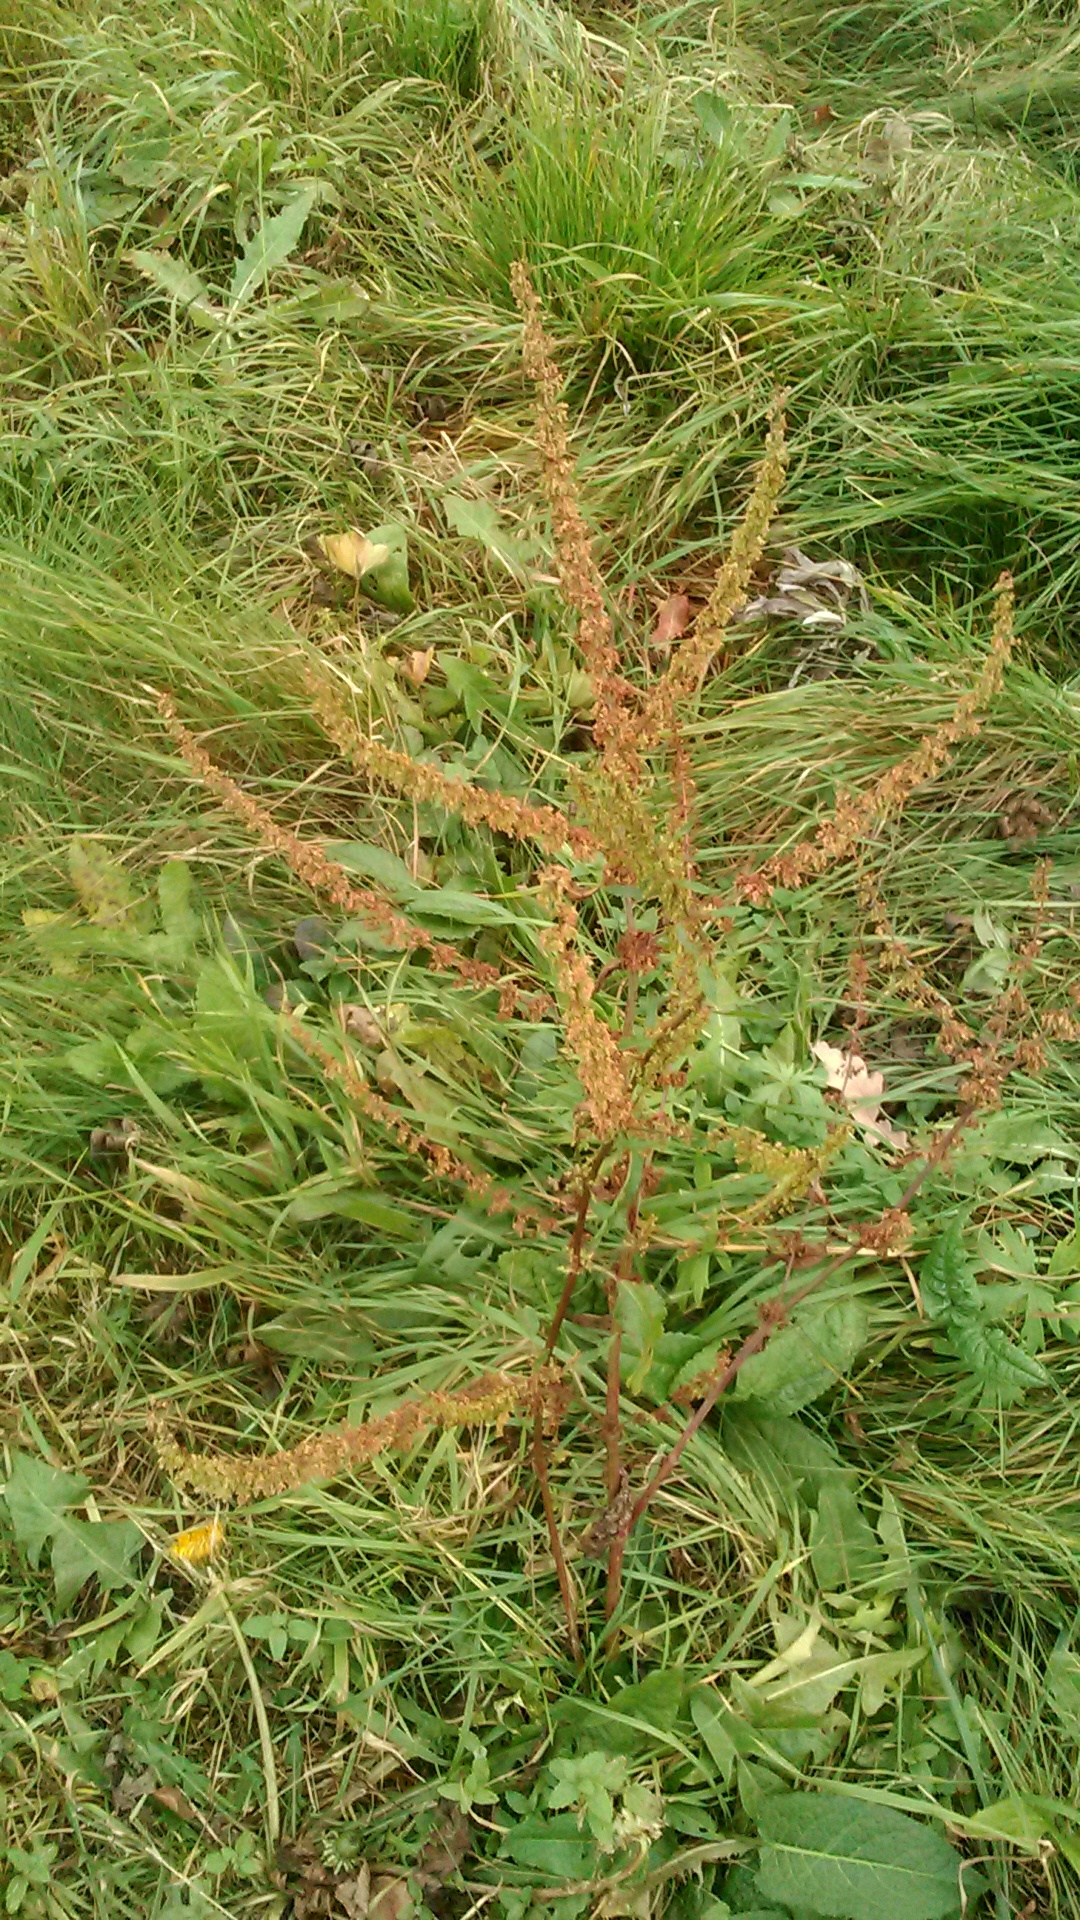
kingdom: Plantae
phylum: Tracheophyta
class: Magnoliopsida
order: Caryophyllales
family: Polygonaceae
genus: Rumex
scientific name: Rumex obtusifolius
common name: Bitter dock
